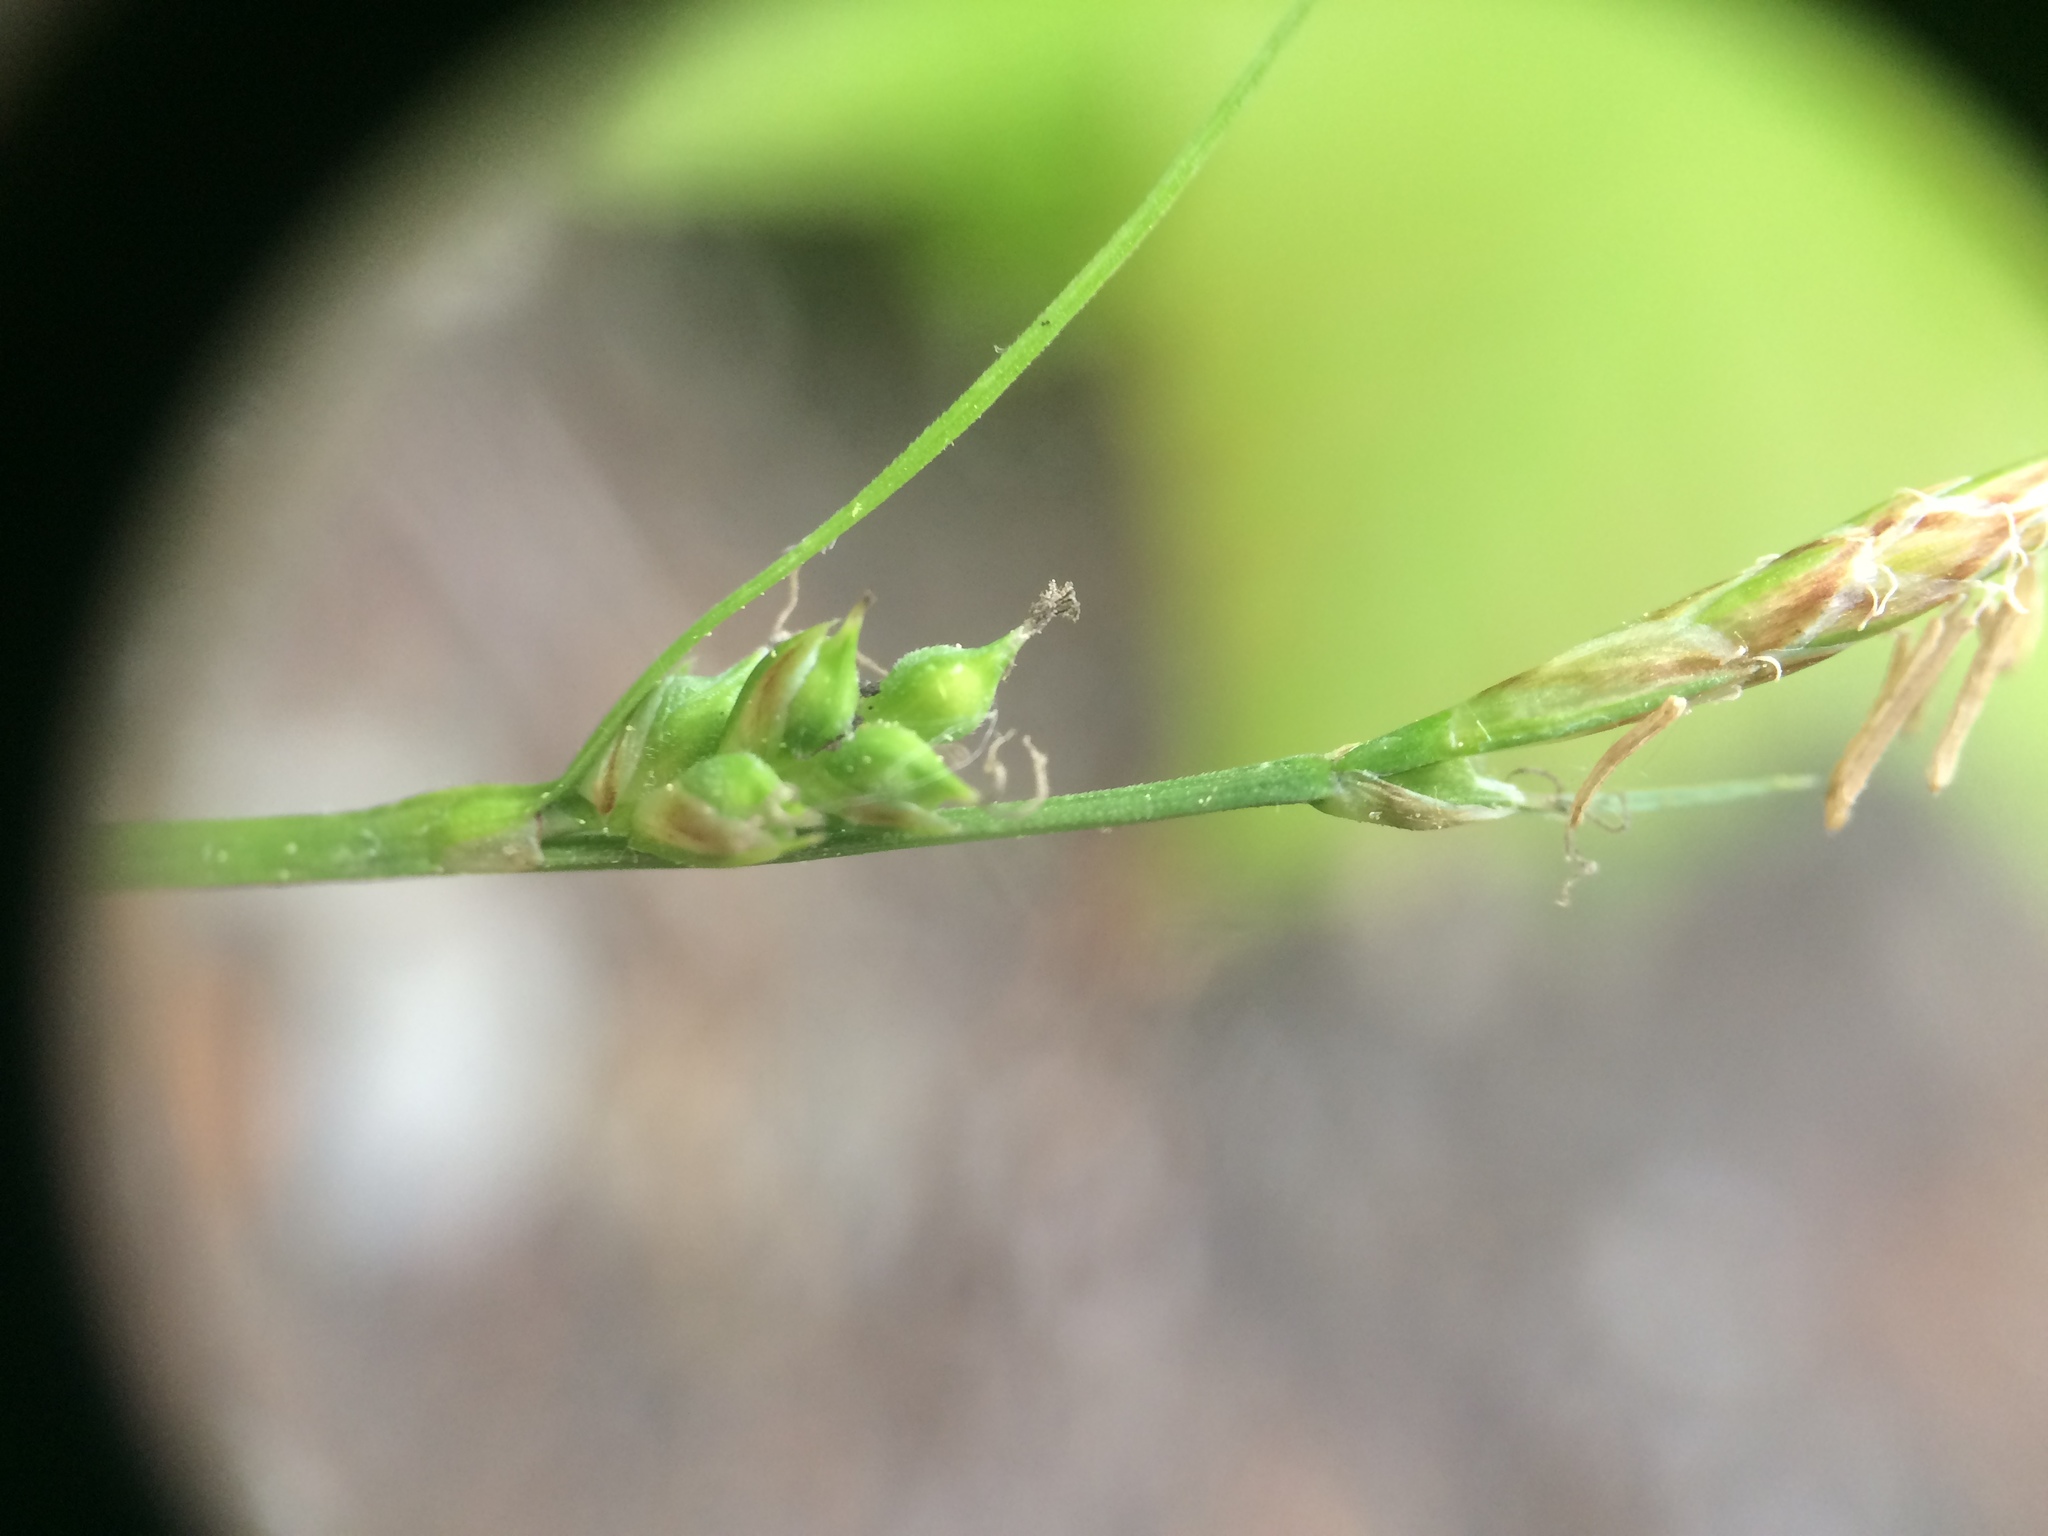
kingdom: Plantae
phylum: Tracheophyta
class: Liliopsida
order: Poales
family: Cyperaceae
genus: Carex
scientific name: Carex communis
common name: Colonial oak sedge
